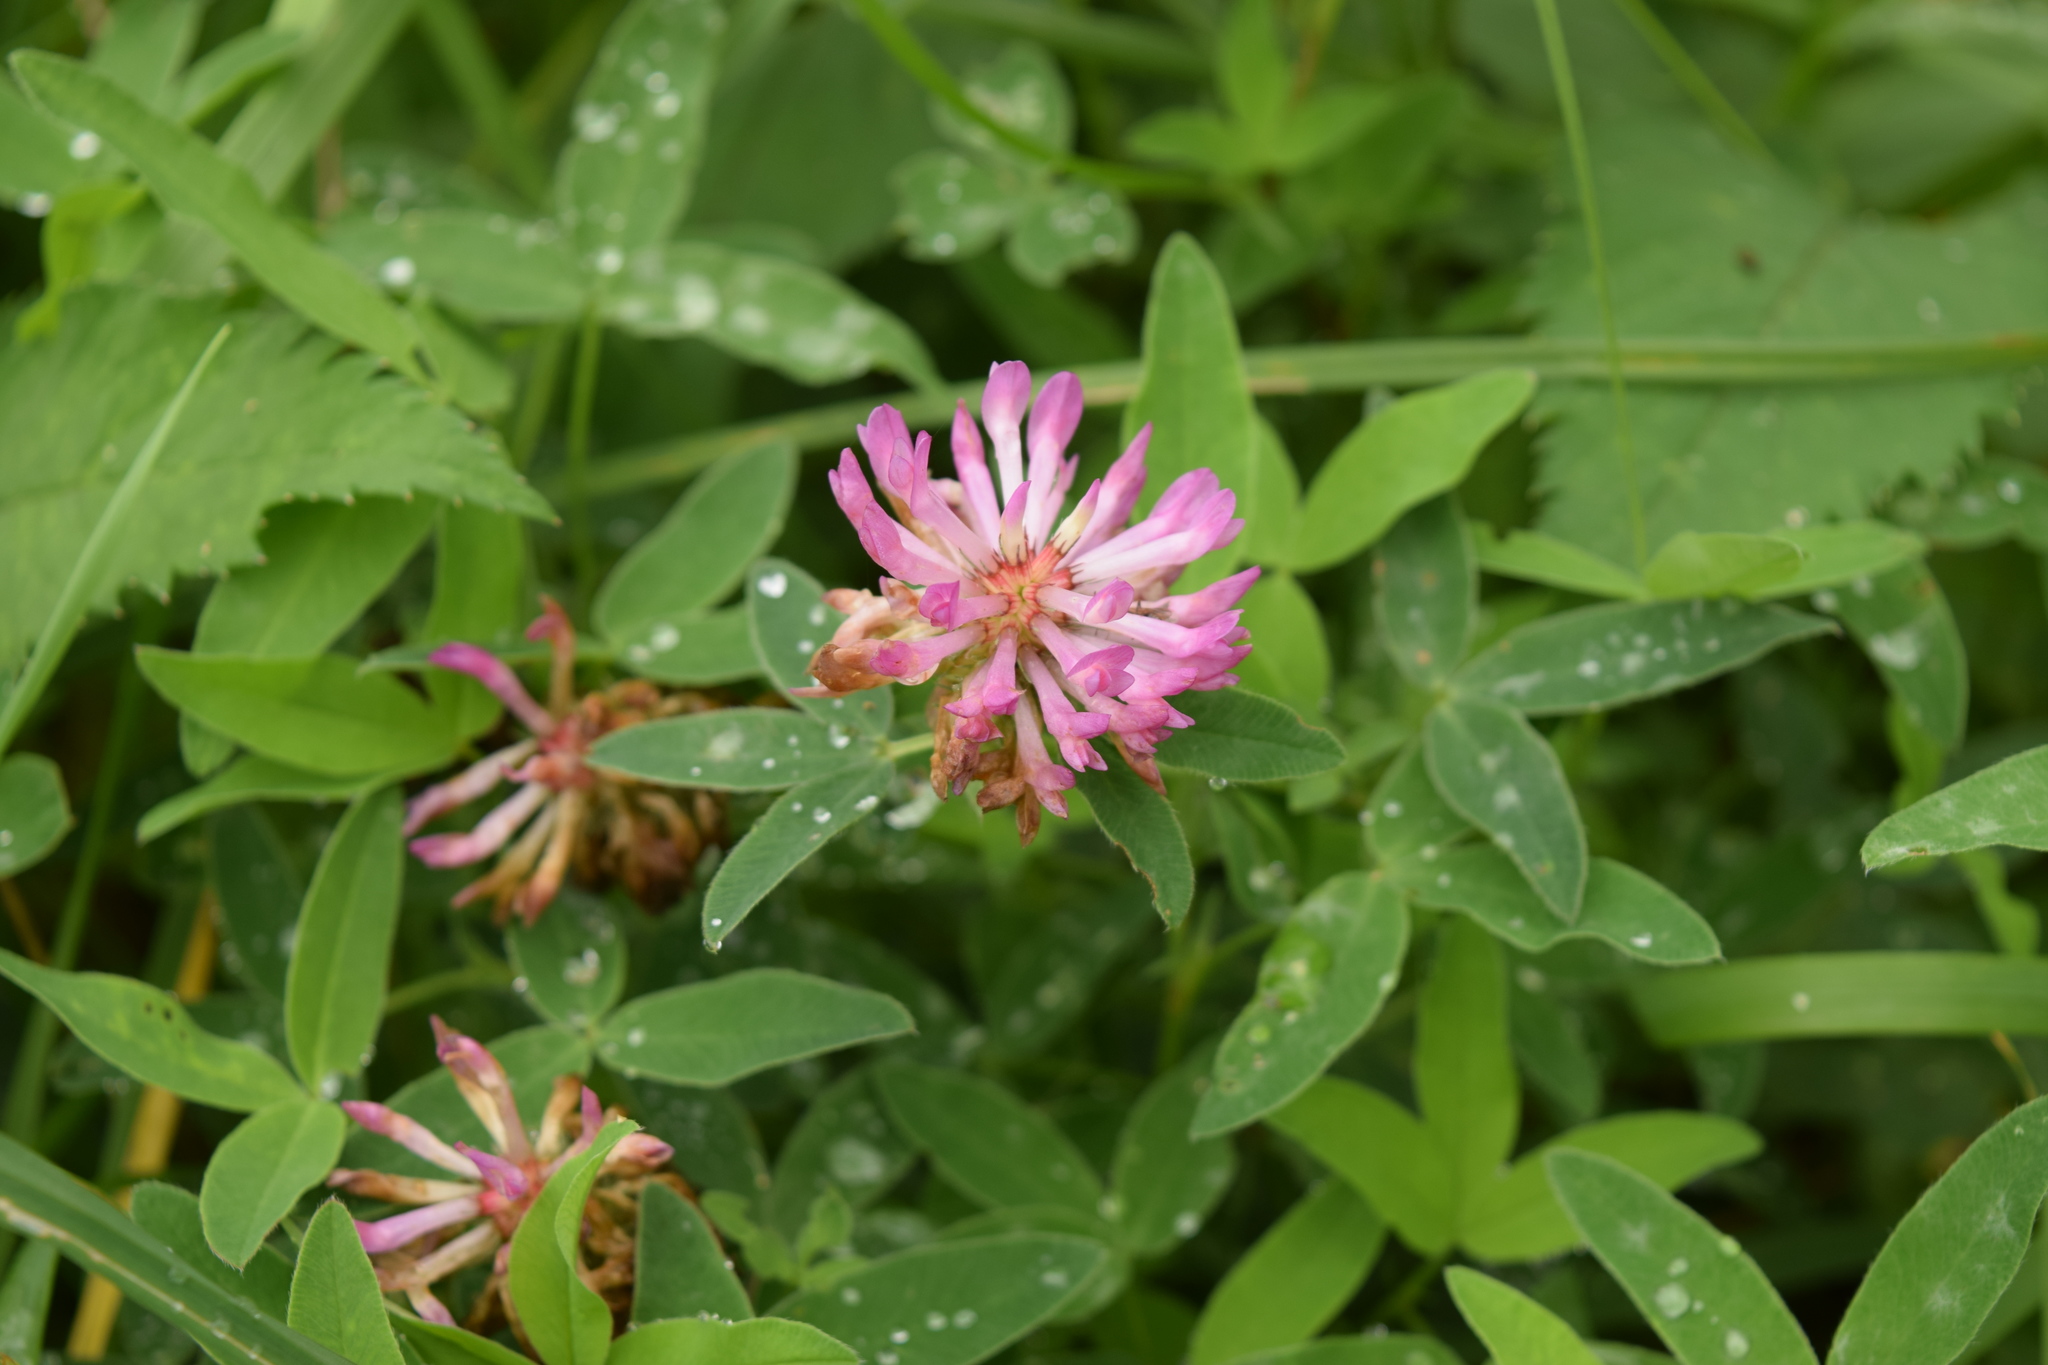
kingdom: Plantae
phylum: Tracheophyta
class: Magnoliopsida
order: Fabales
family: Fabaceae
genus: Trifolium
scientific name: Trifolium medium
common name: Zigzag clover
